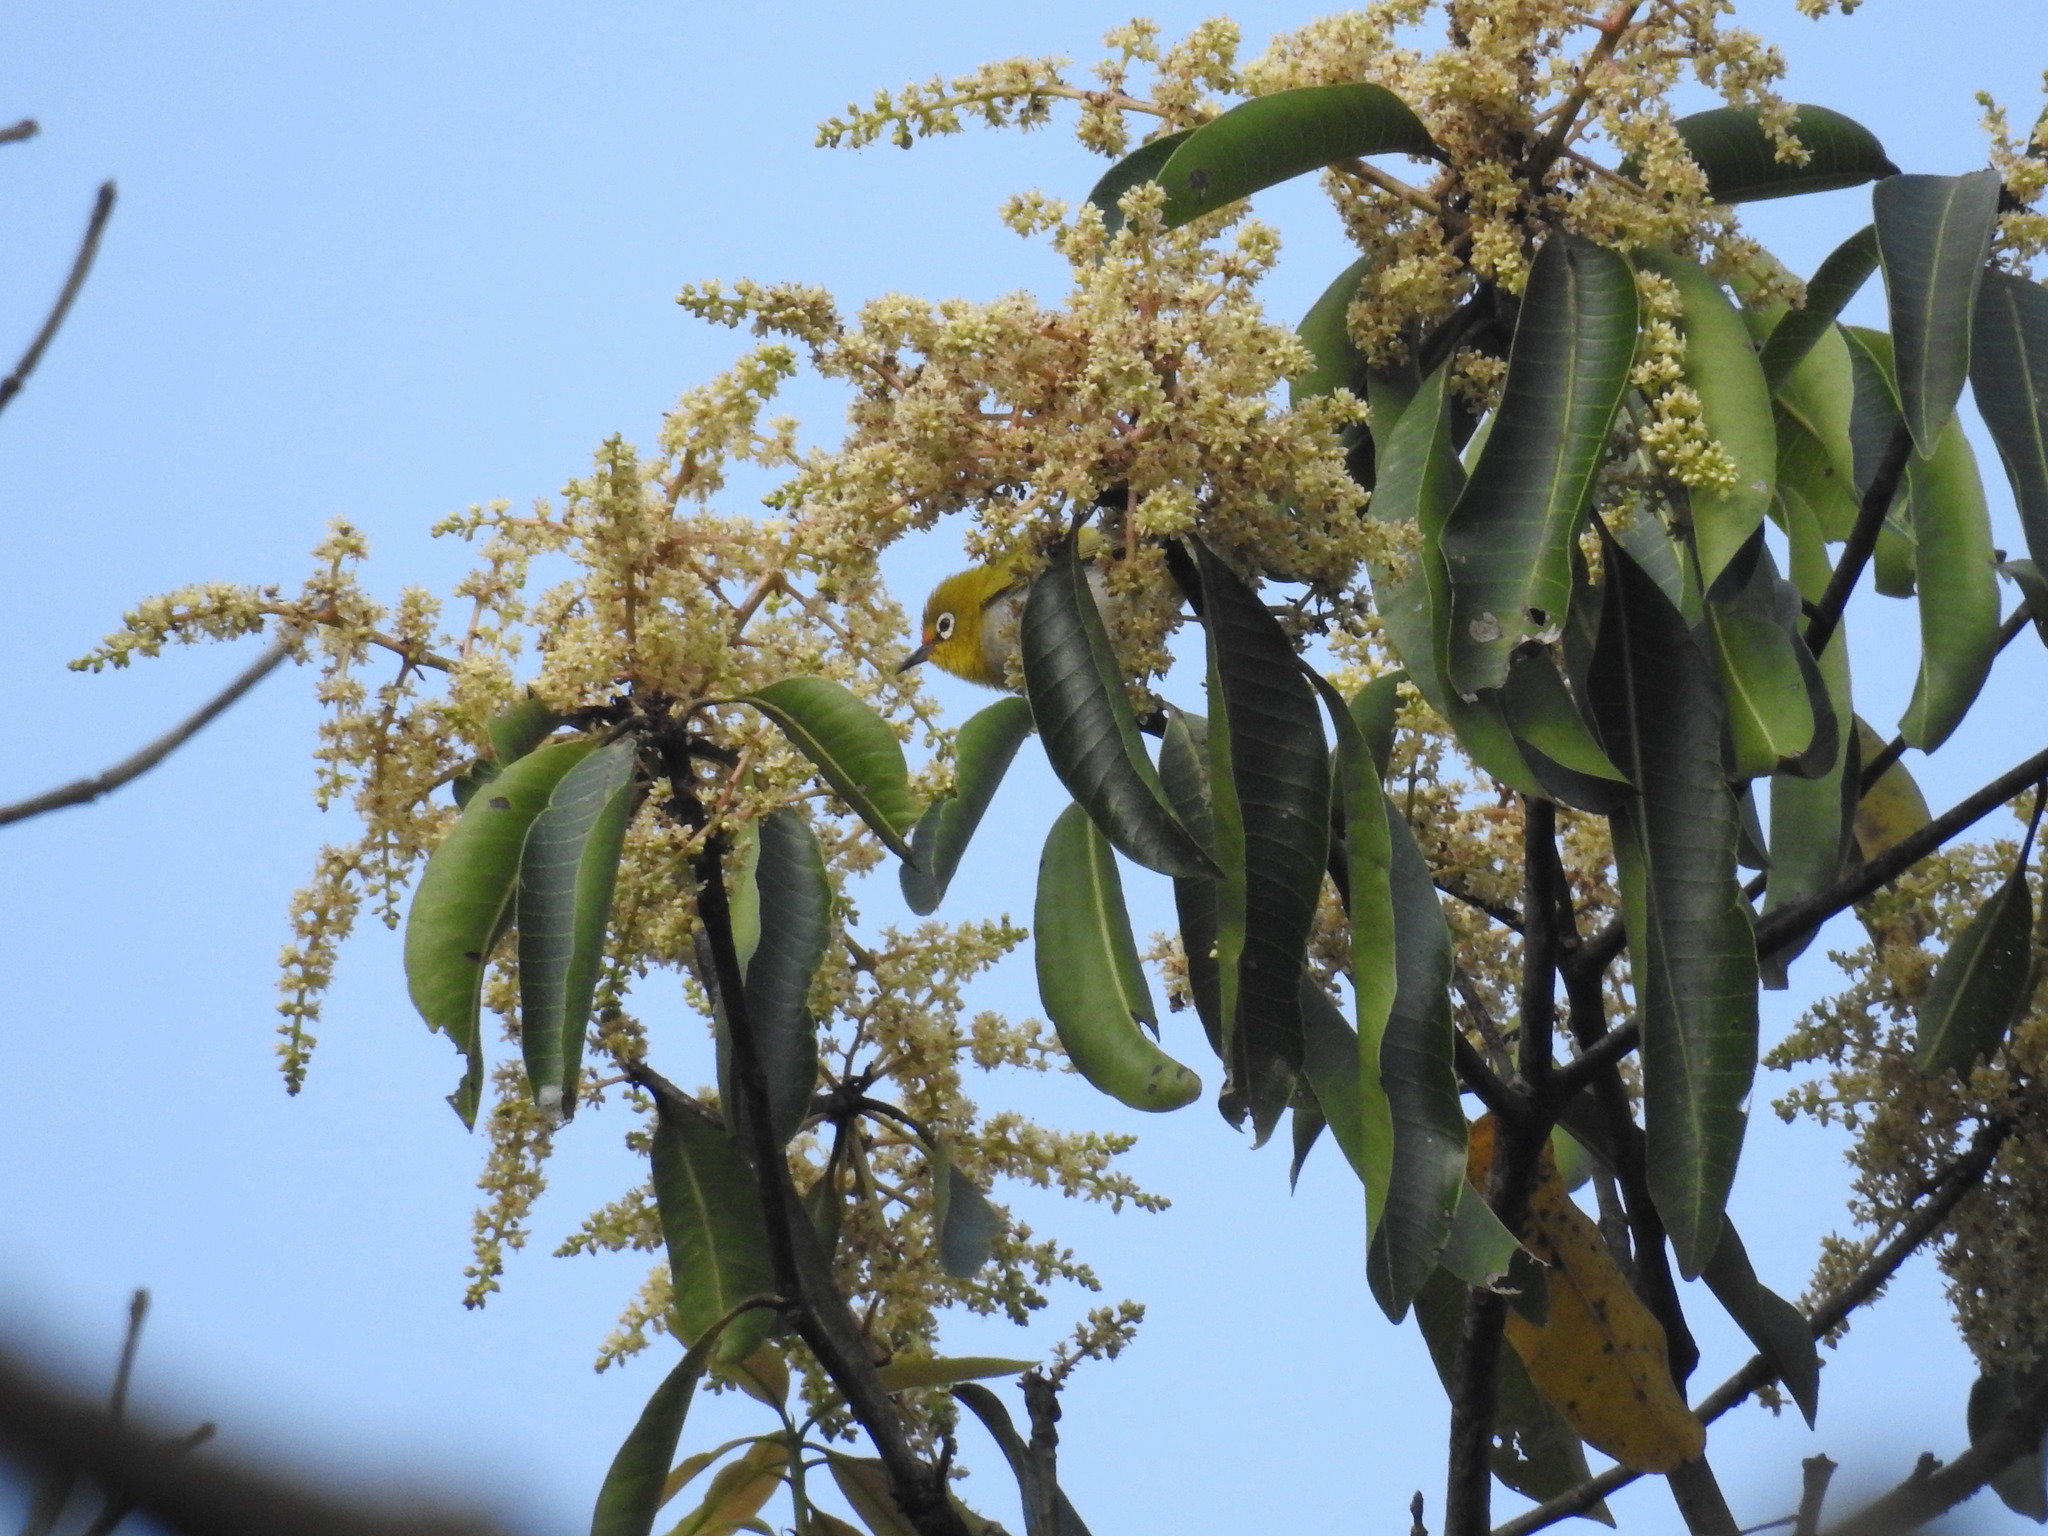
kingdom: Plantae
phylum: Tracheophyta
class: Magnoliopsida
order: Sapindales
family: Anacardiaceae
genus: Mangifera
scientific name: Mangifera indica
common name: Mango
